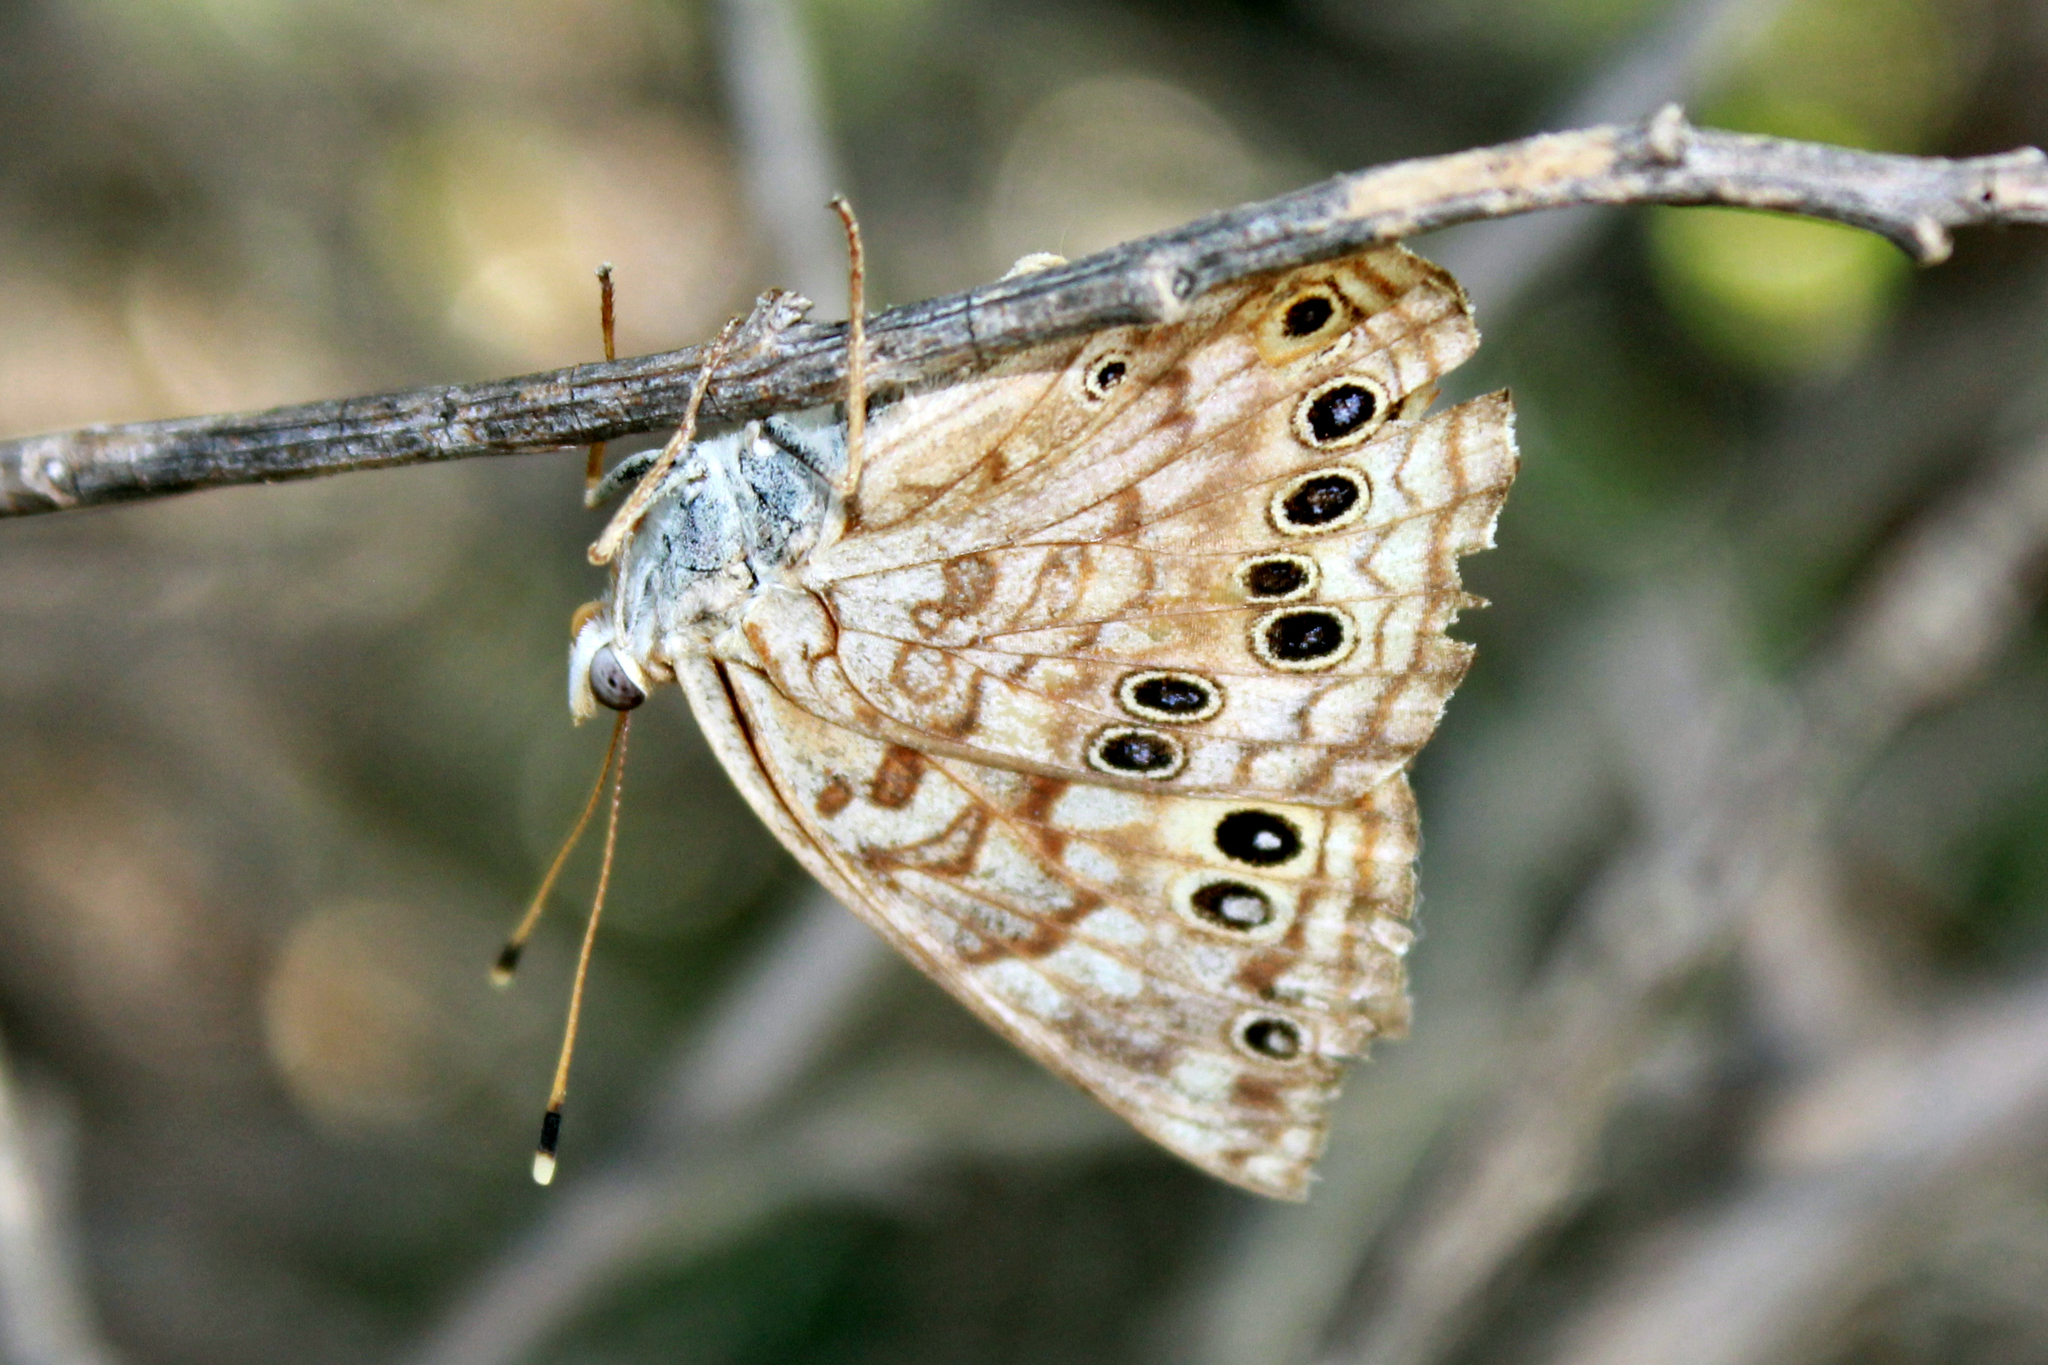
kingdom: Animalia
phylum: Arthropoda
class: Insecta
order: Lepidoptera
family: Nymphalidae
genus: Asterocampa
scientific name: Asterocampa celtis
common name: Hackberry emperor
